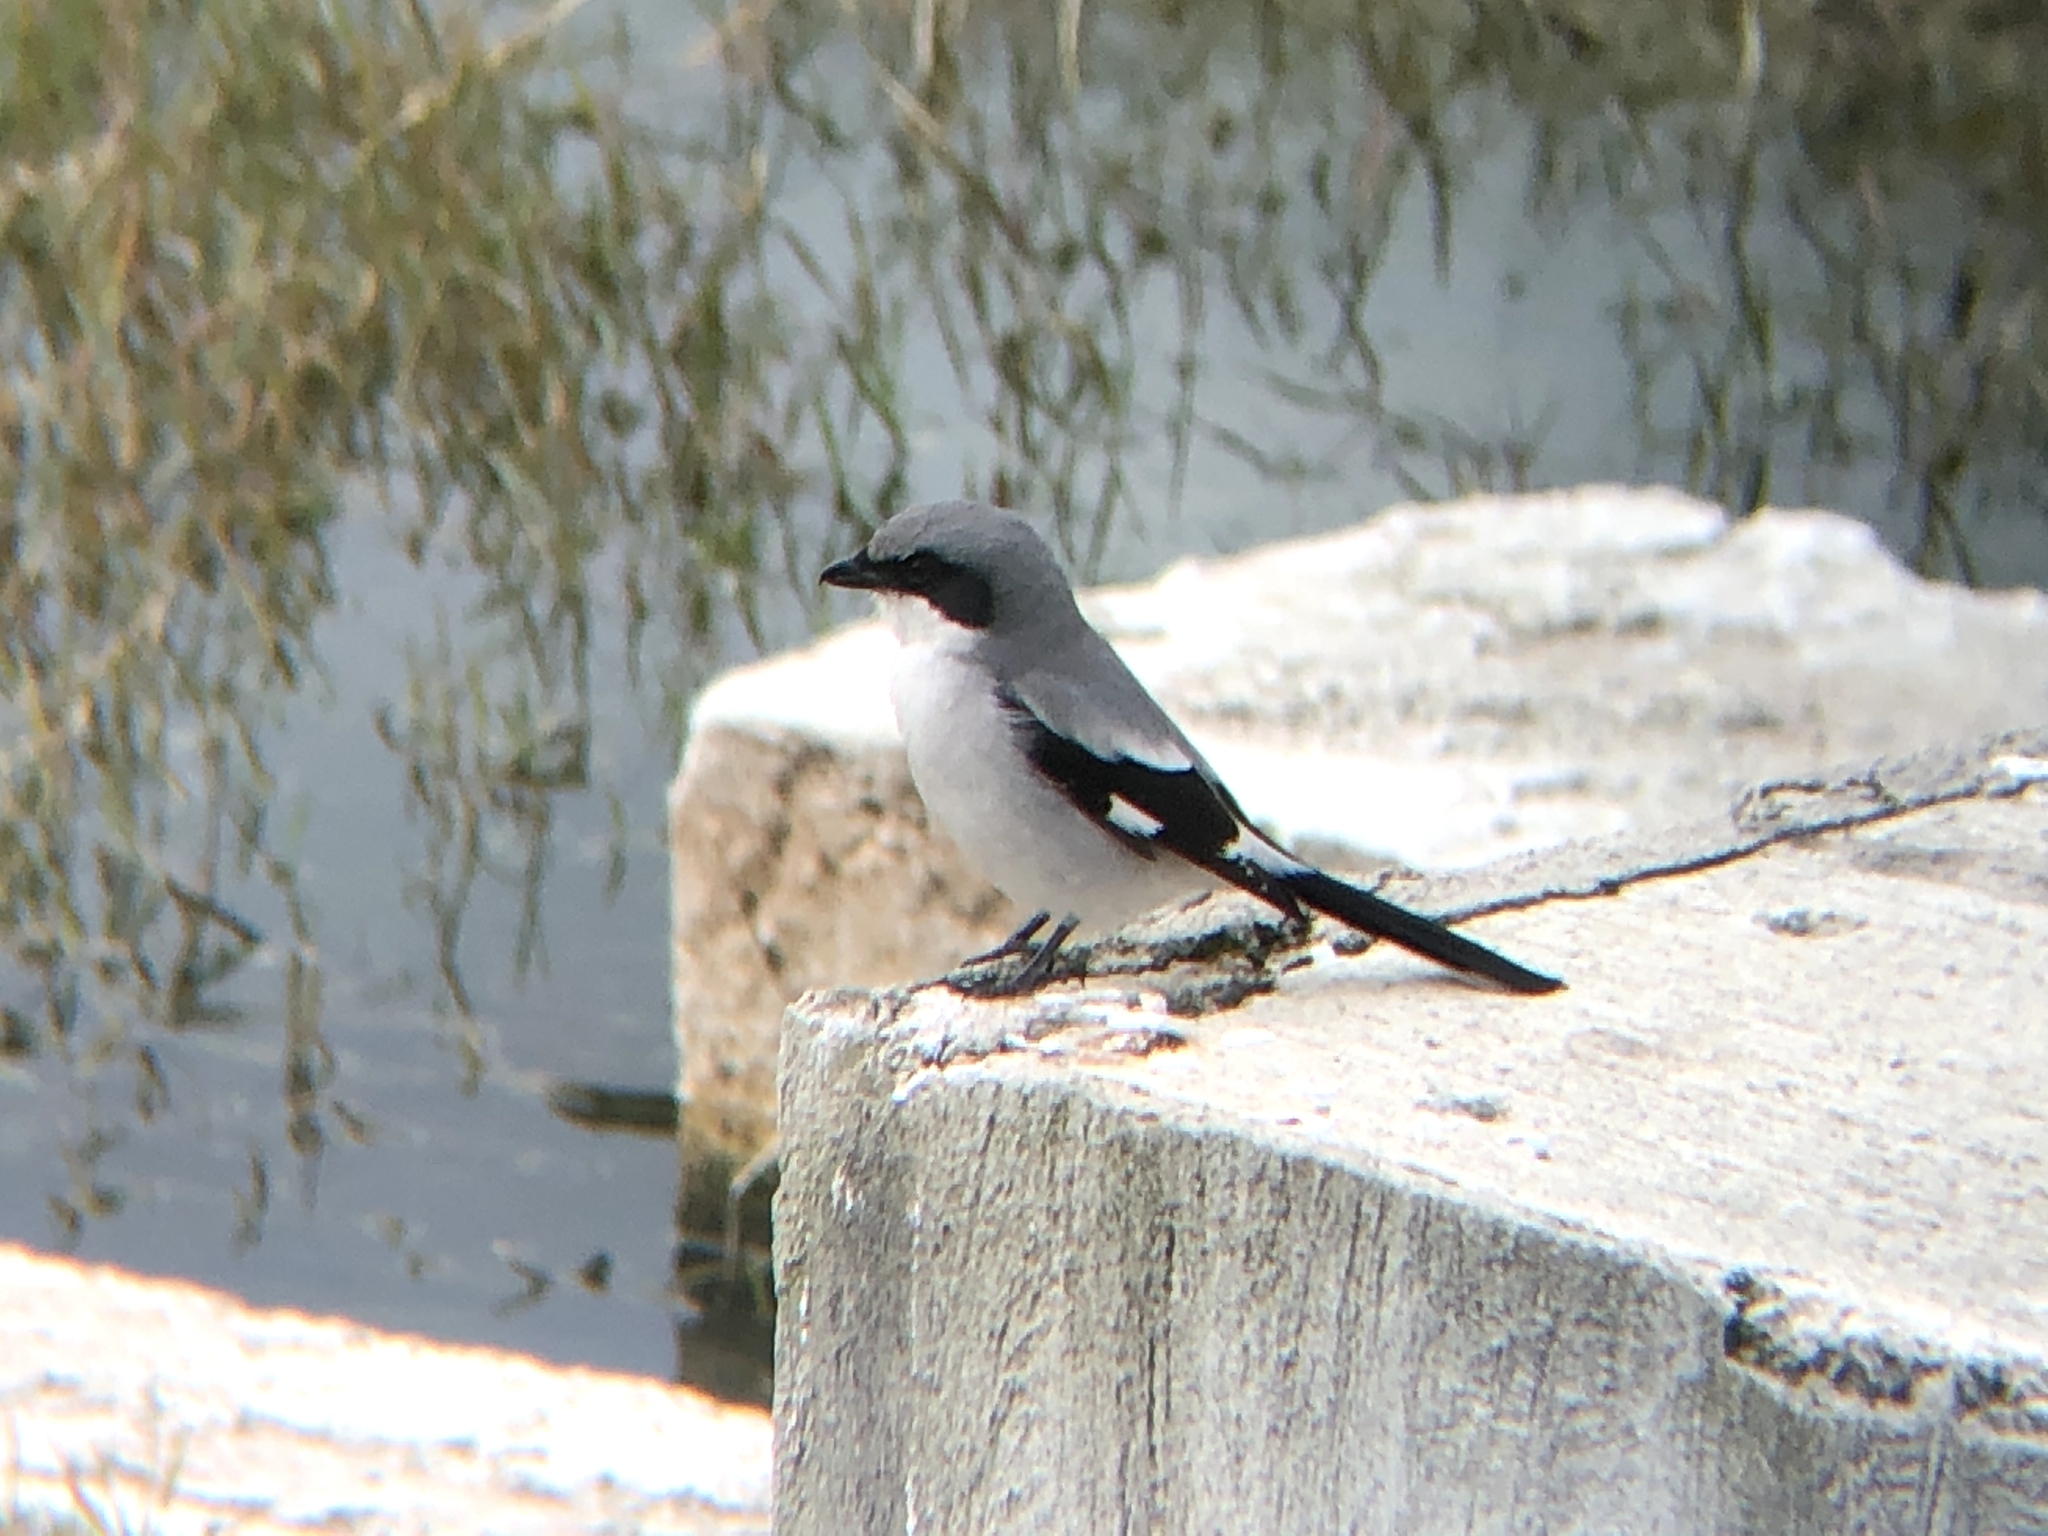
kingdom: Animalia
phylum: Chordata
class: Aves
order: Passeriformes
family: Laniidae
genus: Lanius
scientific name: Lanius ludovicianus
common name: Loggerhead shrike
